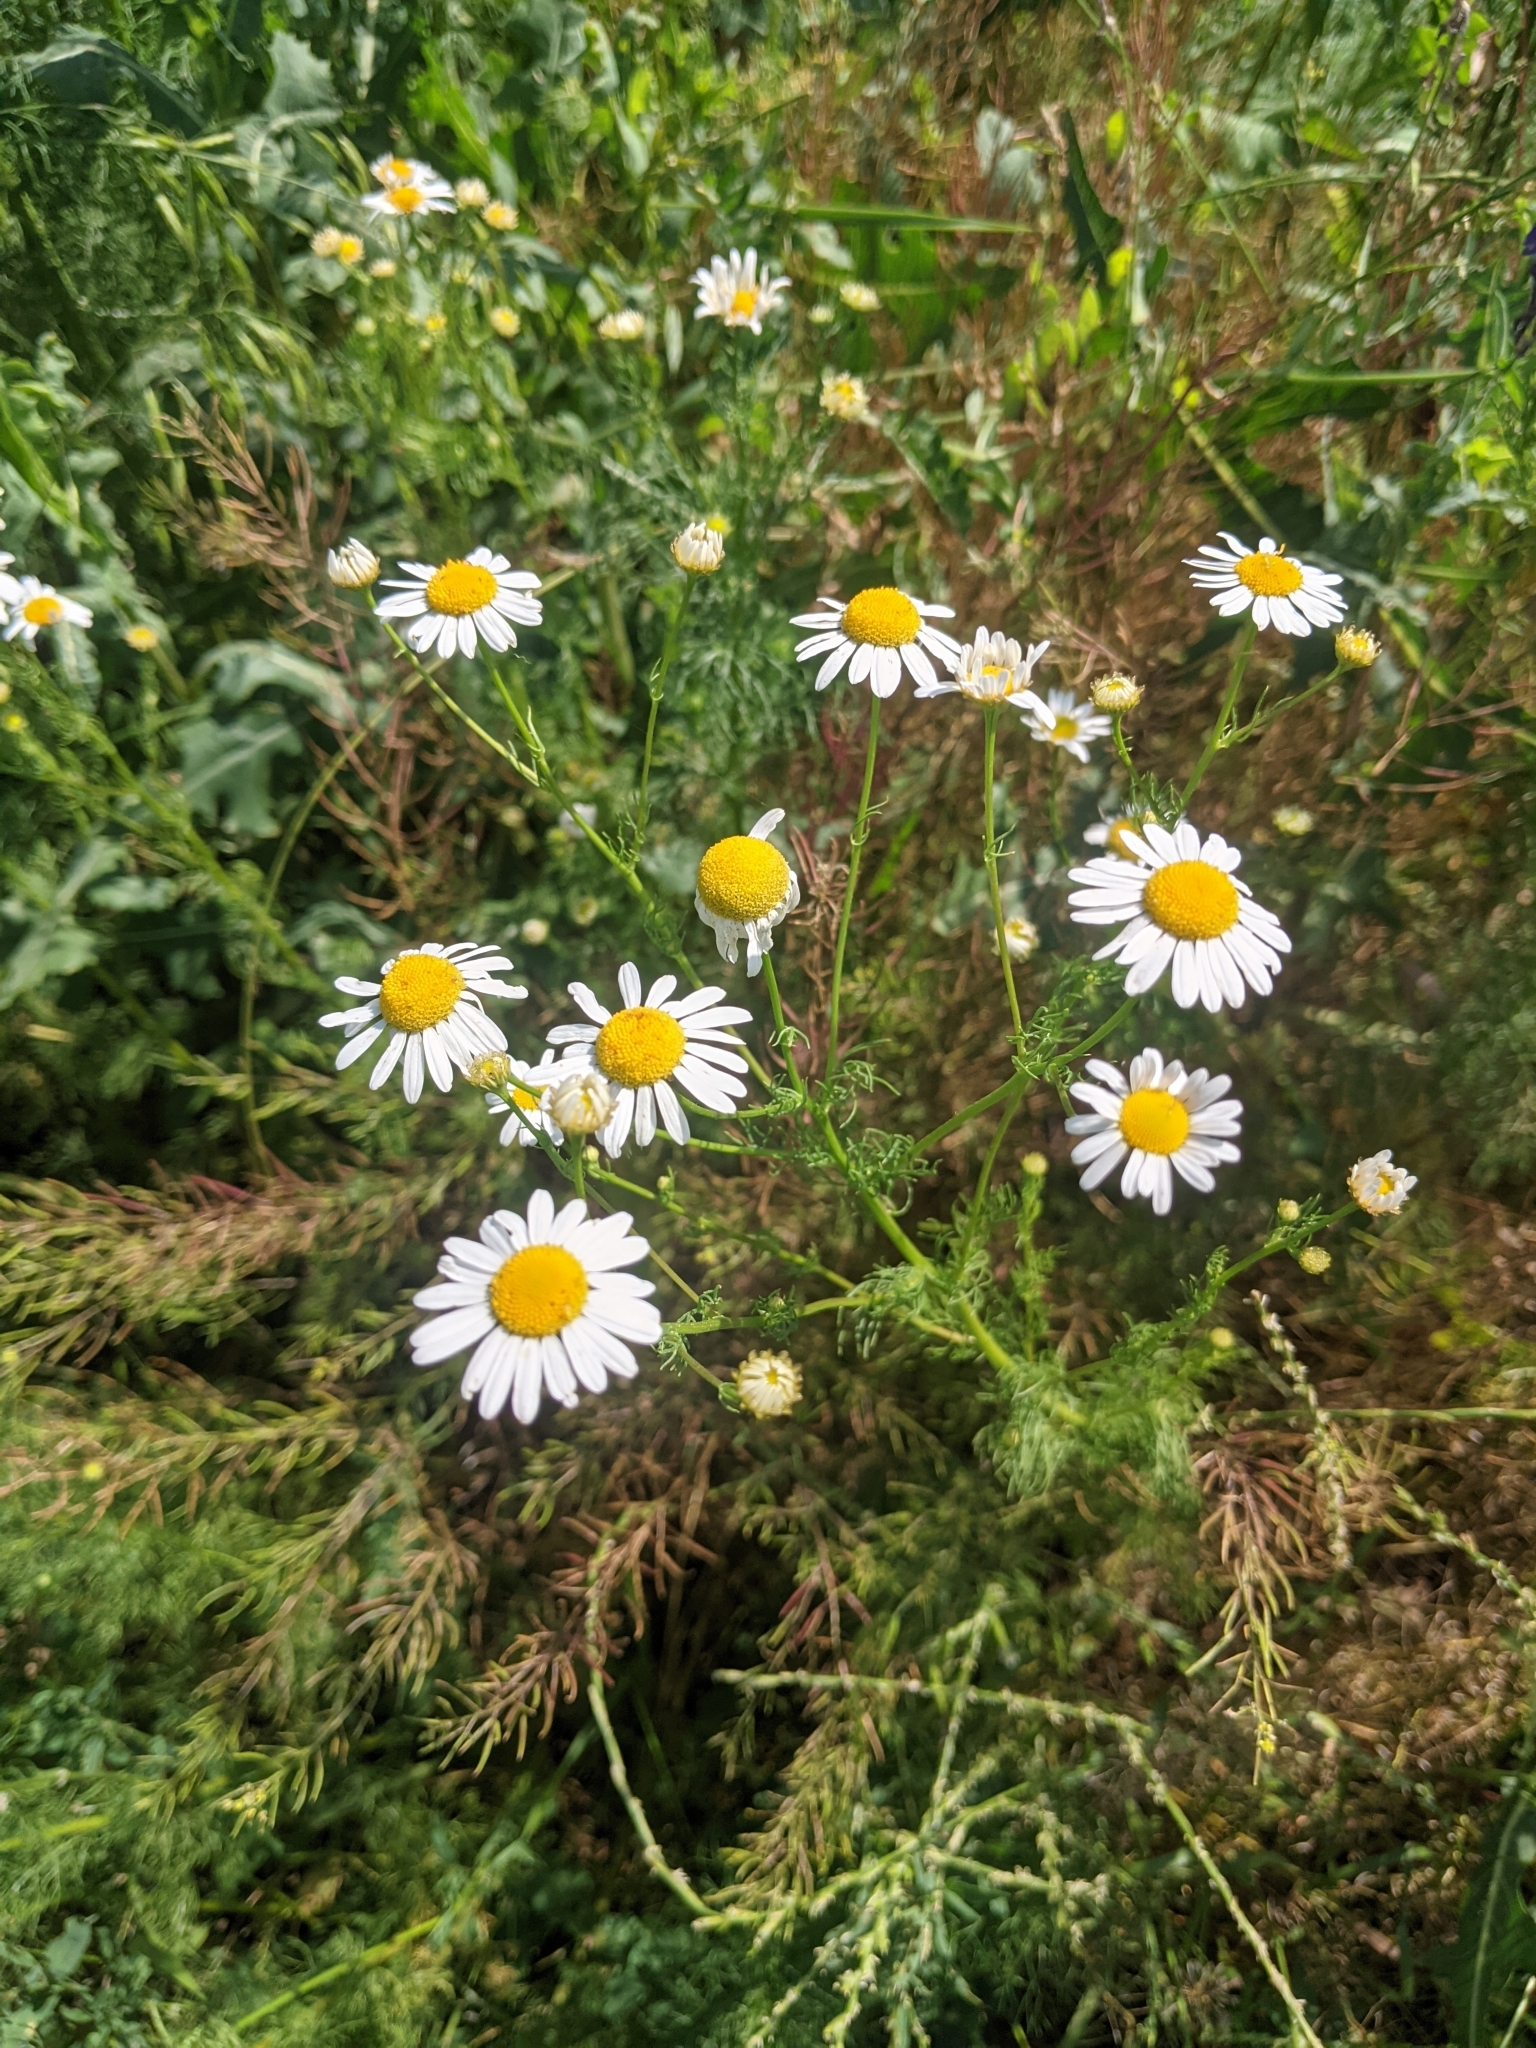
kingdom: Plantae
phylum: Tracheophyta
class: Magnoliopsida
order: Asterales
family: Asteraceae
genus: Tripleurospermum
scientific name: Tripleurospermum inodorum
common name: Scentless mayweed
